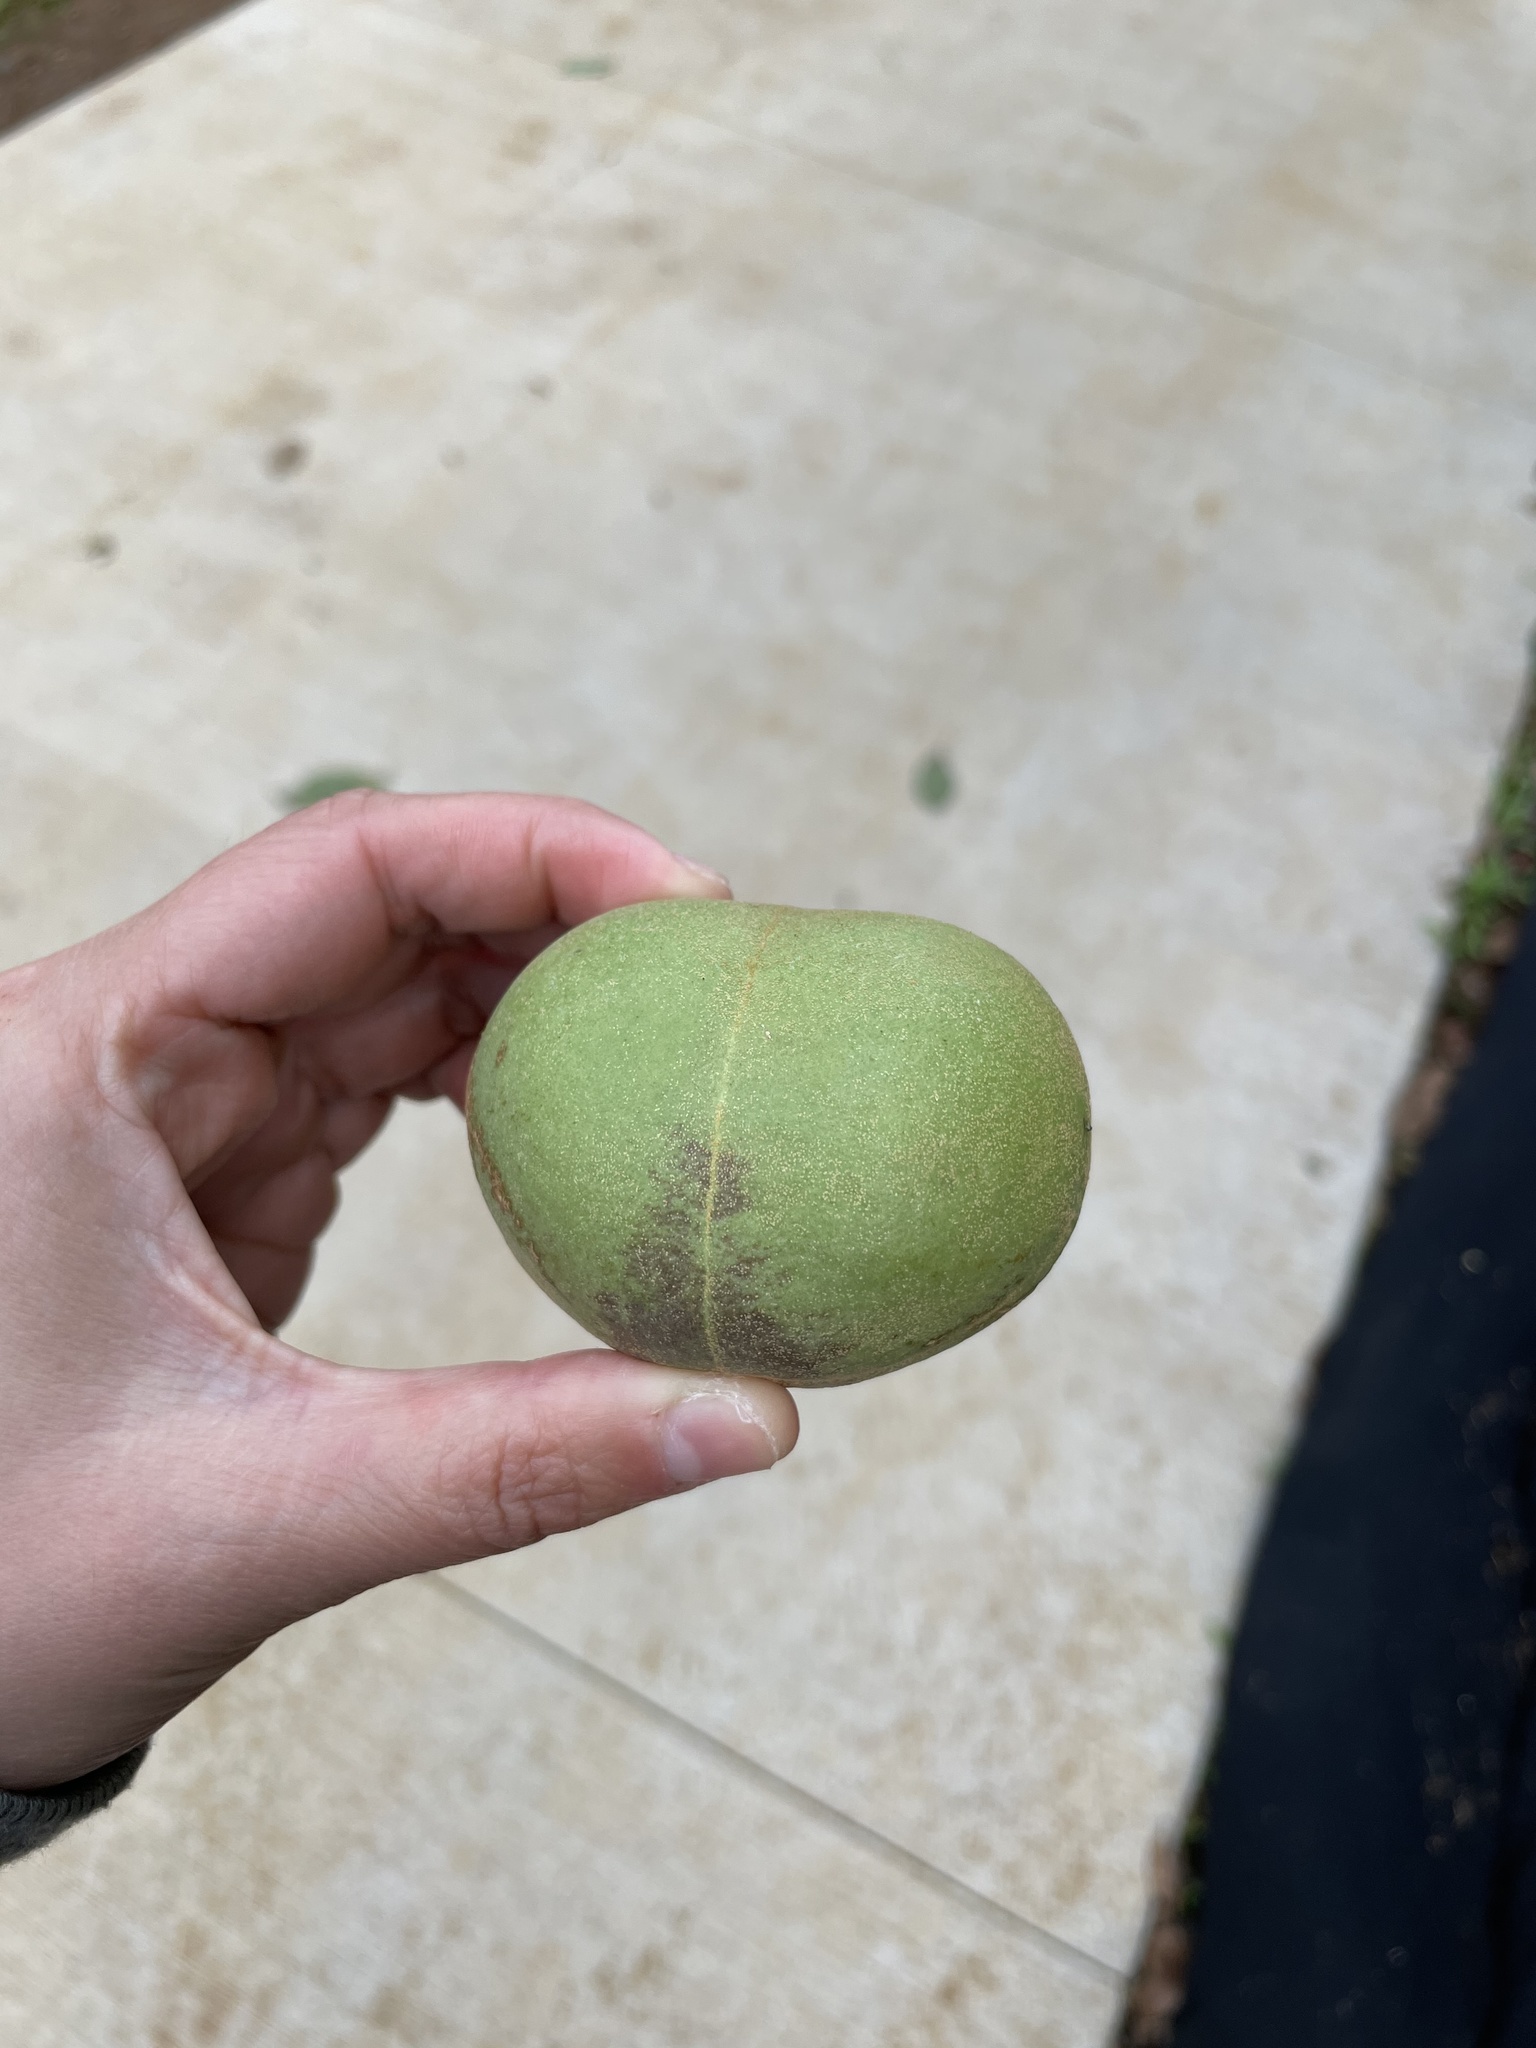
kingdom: Plantae
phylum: Tracheophyta
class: Magnoliopsida
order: Malpighiales
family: Euphorbiaceae
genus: Aleurites
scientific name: Aleurites moluccanus
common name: Candlenut tree
